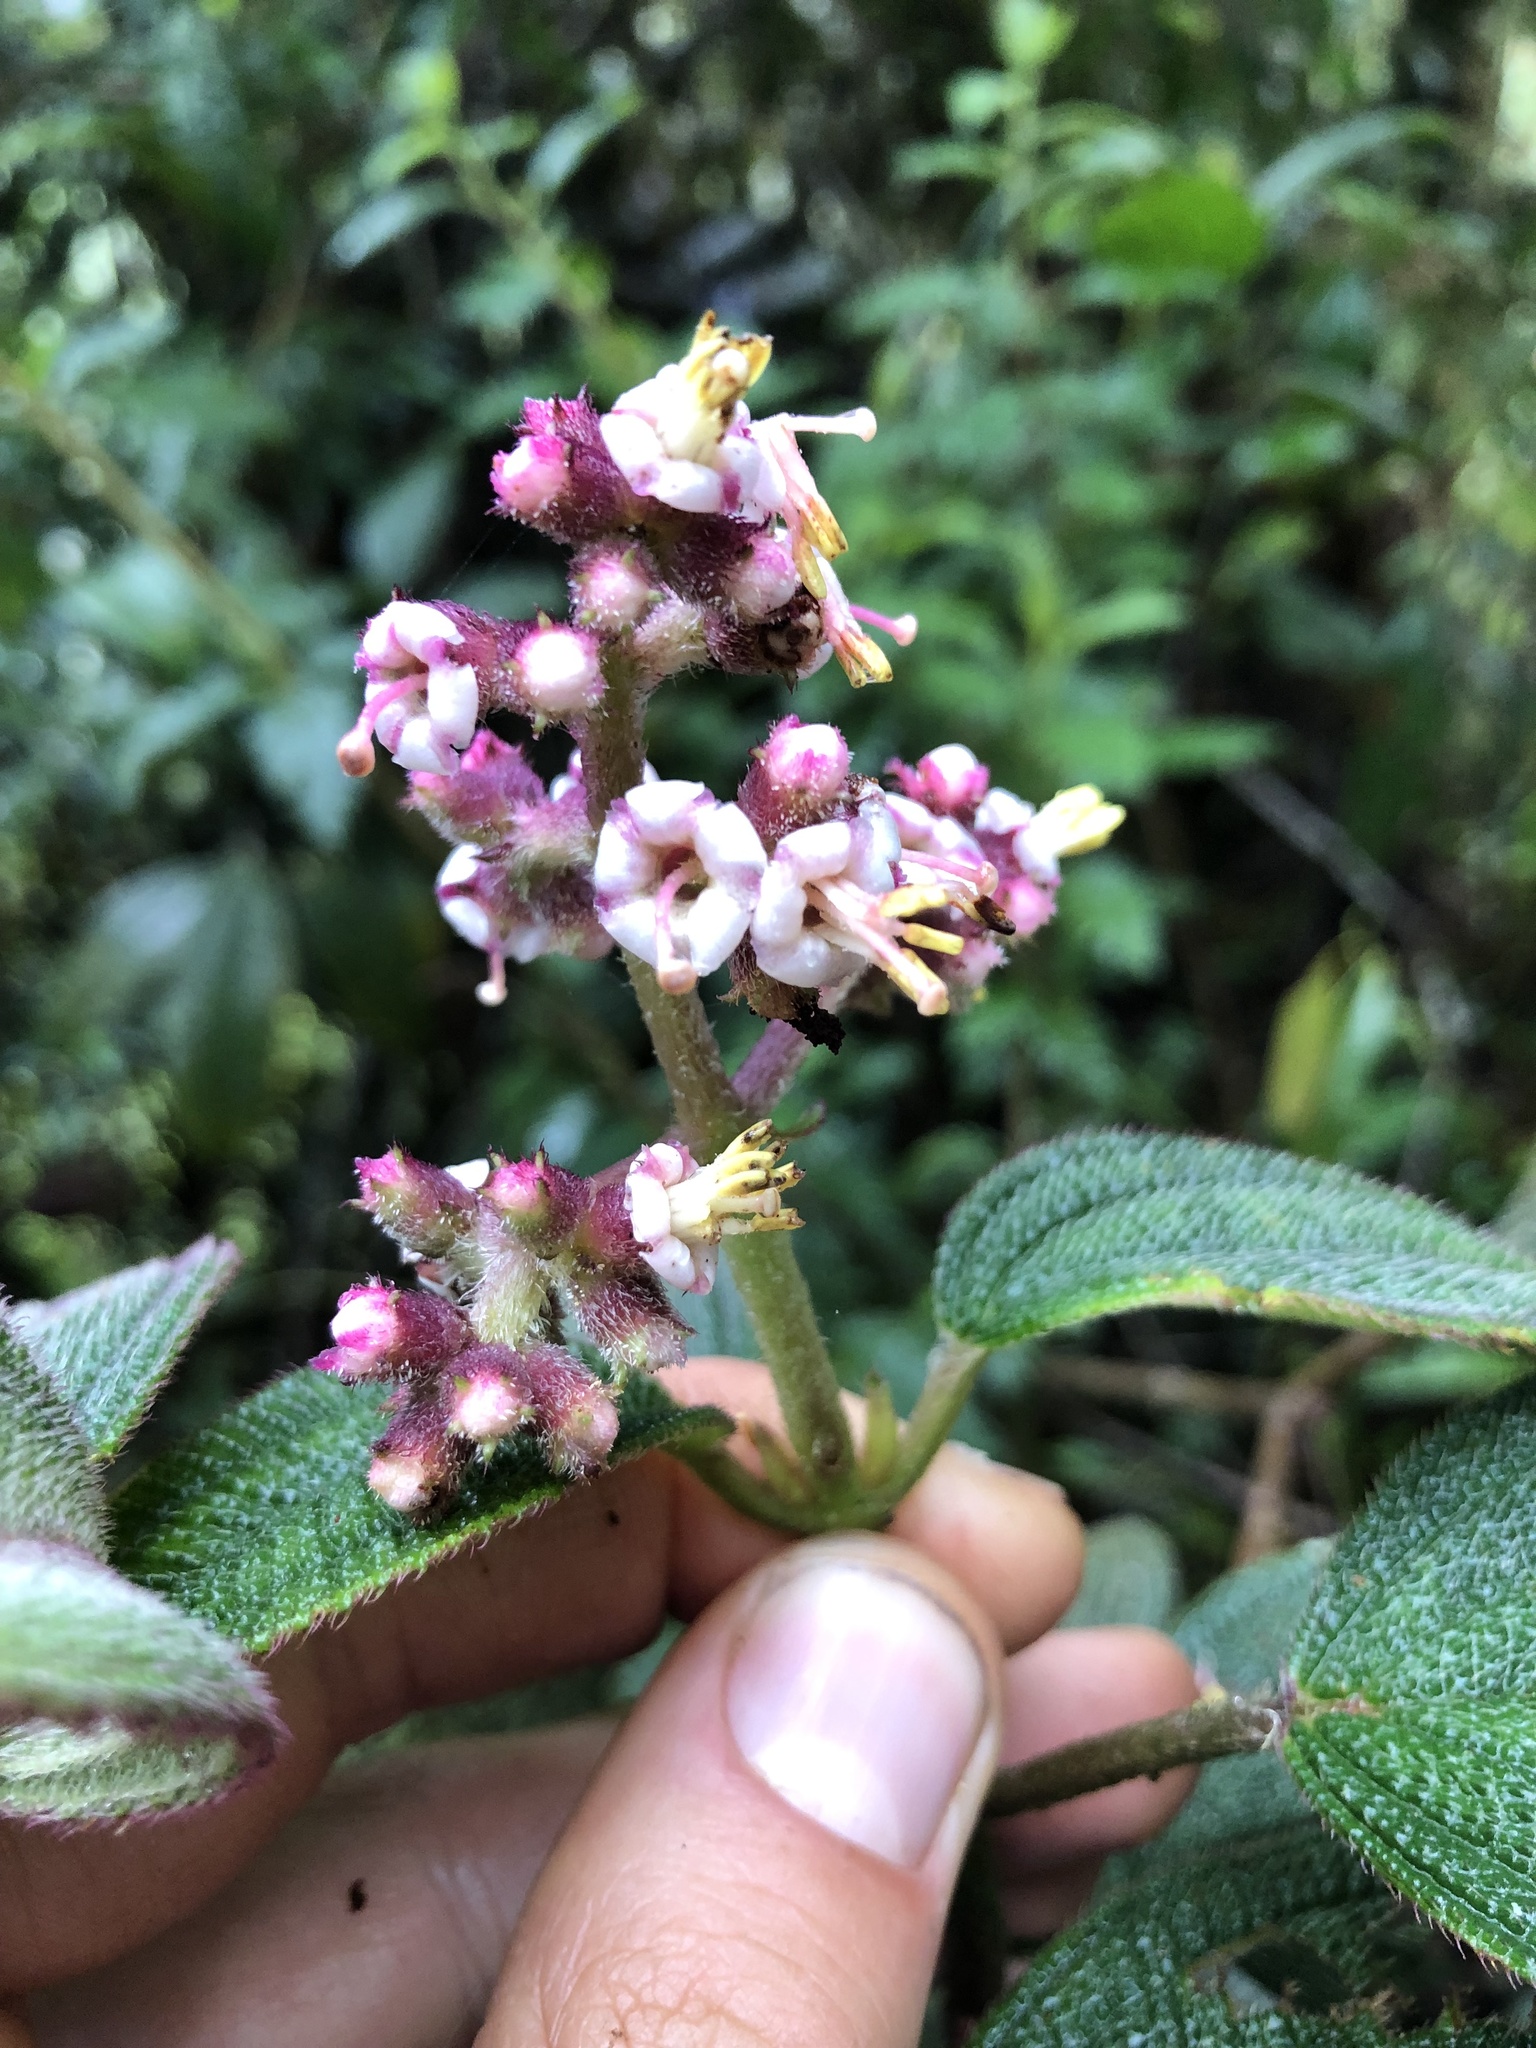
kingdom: Plantae
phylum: Tracheophyta
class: Magnoliopsida
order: Myrtales
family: Melastomataceae
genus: Miconia
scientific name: Miconia asperrima
